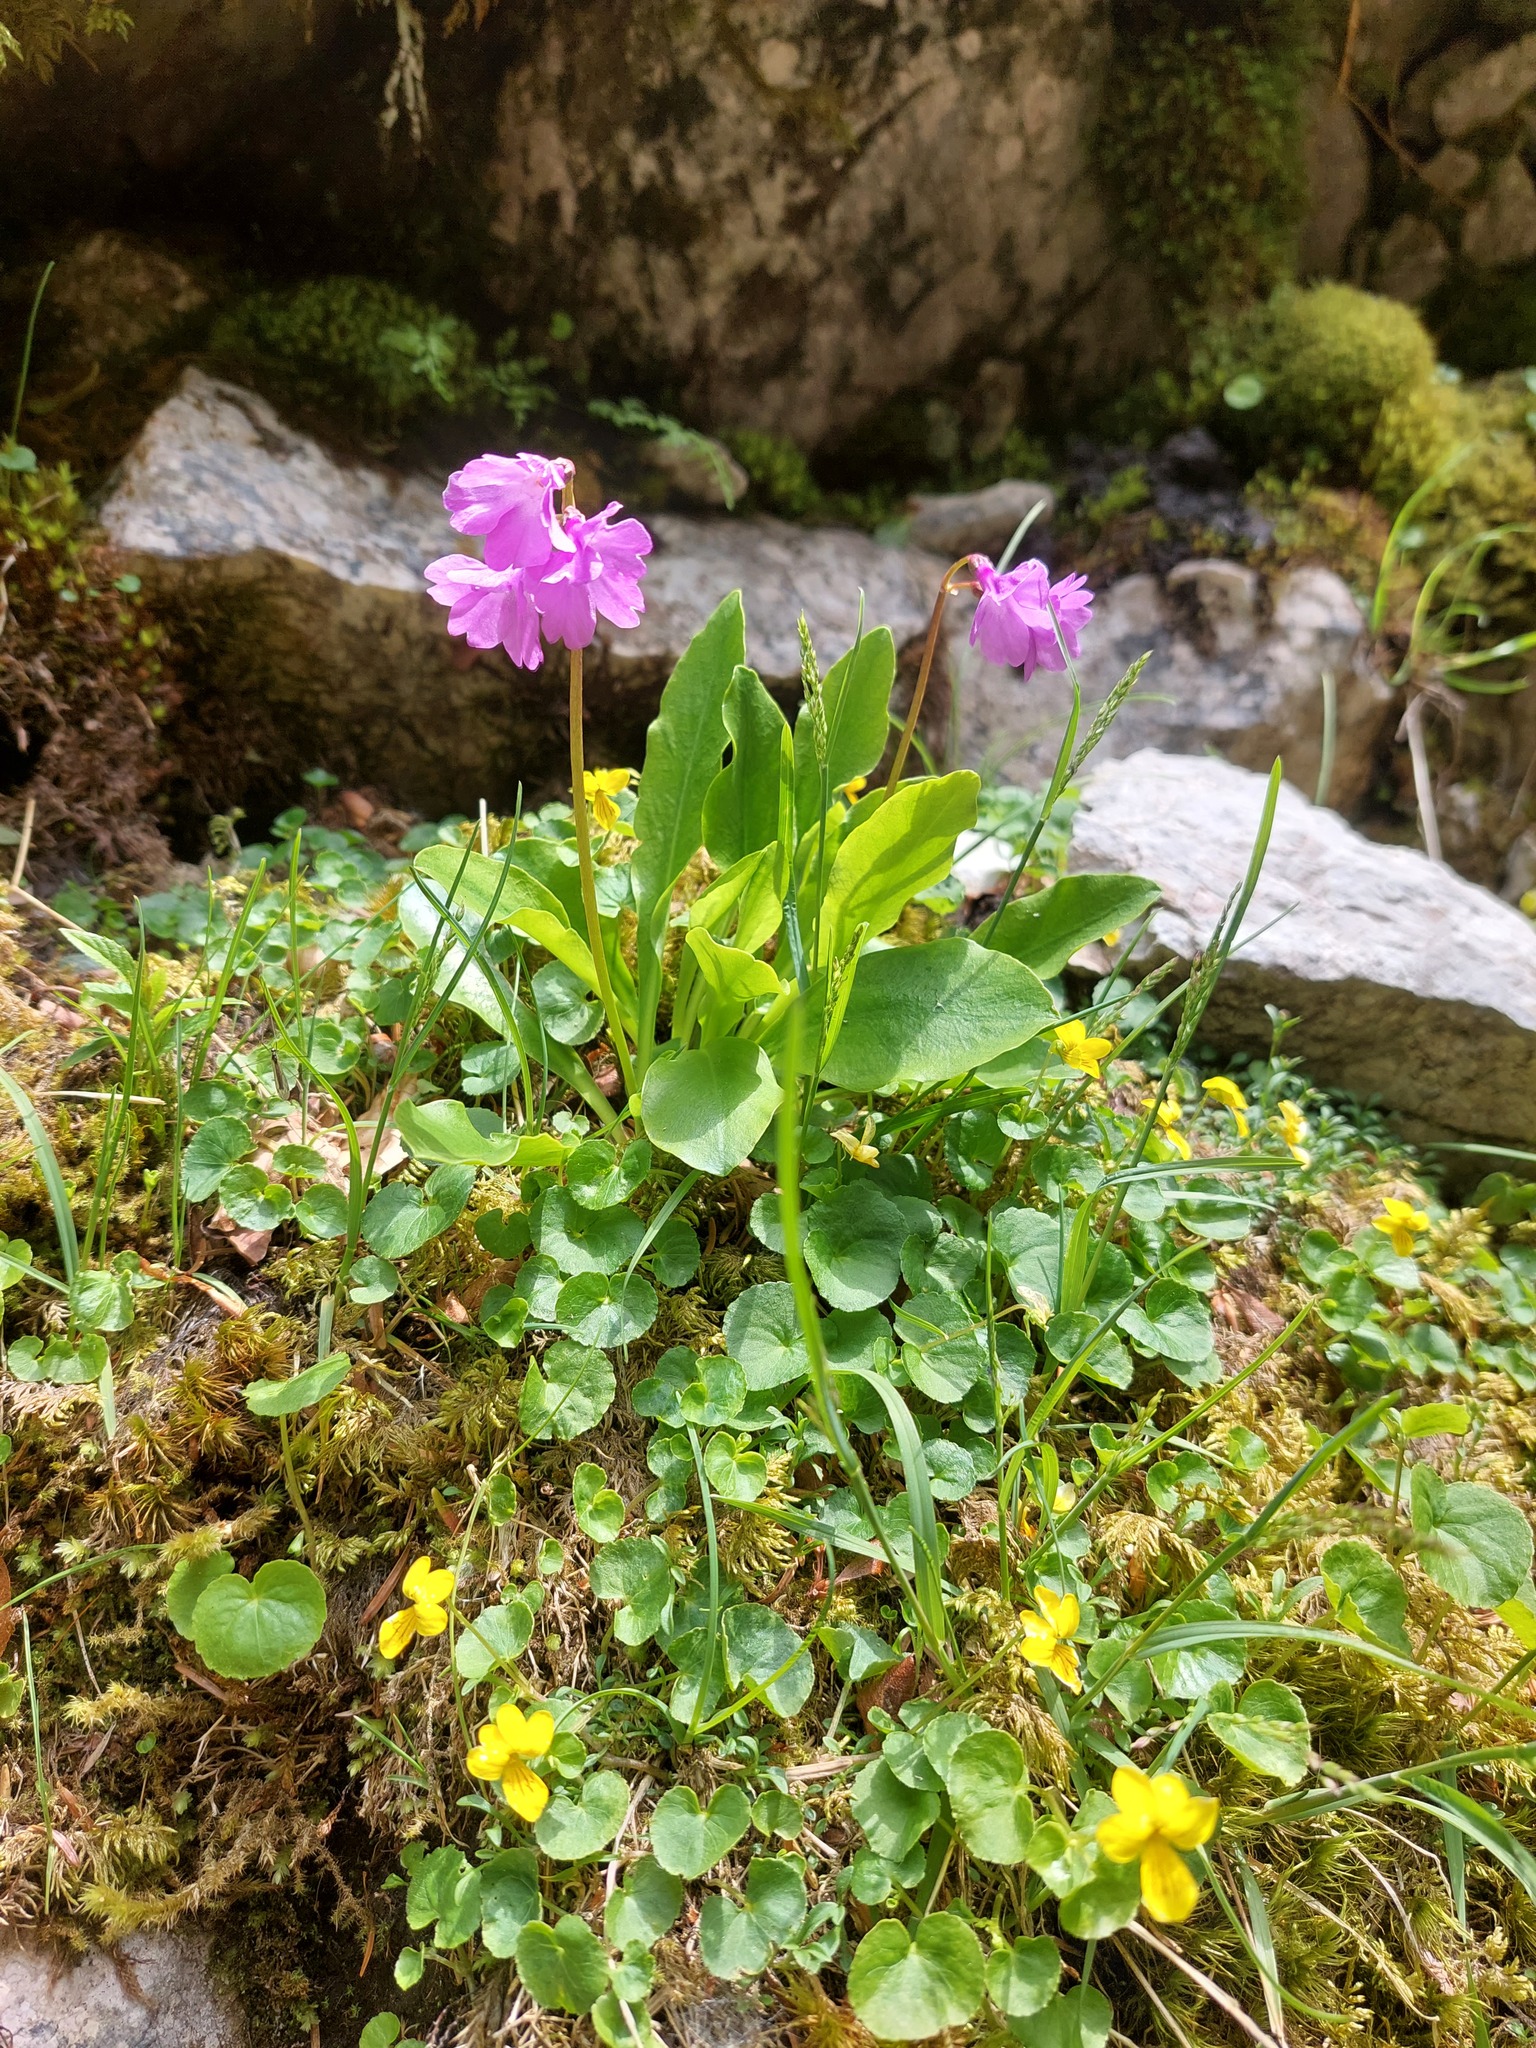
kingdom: Plantae
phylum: Tracheophyta
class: Magnoliopsida
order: Ericales
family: Primulaceae
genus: Primula
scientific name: Primula carniolica
